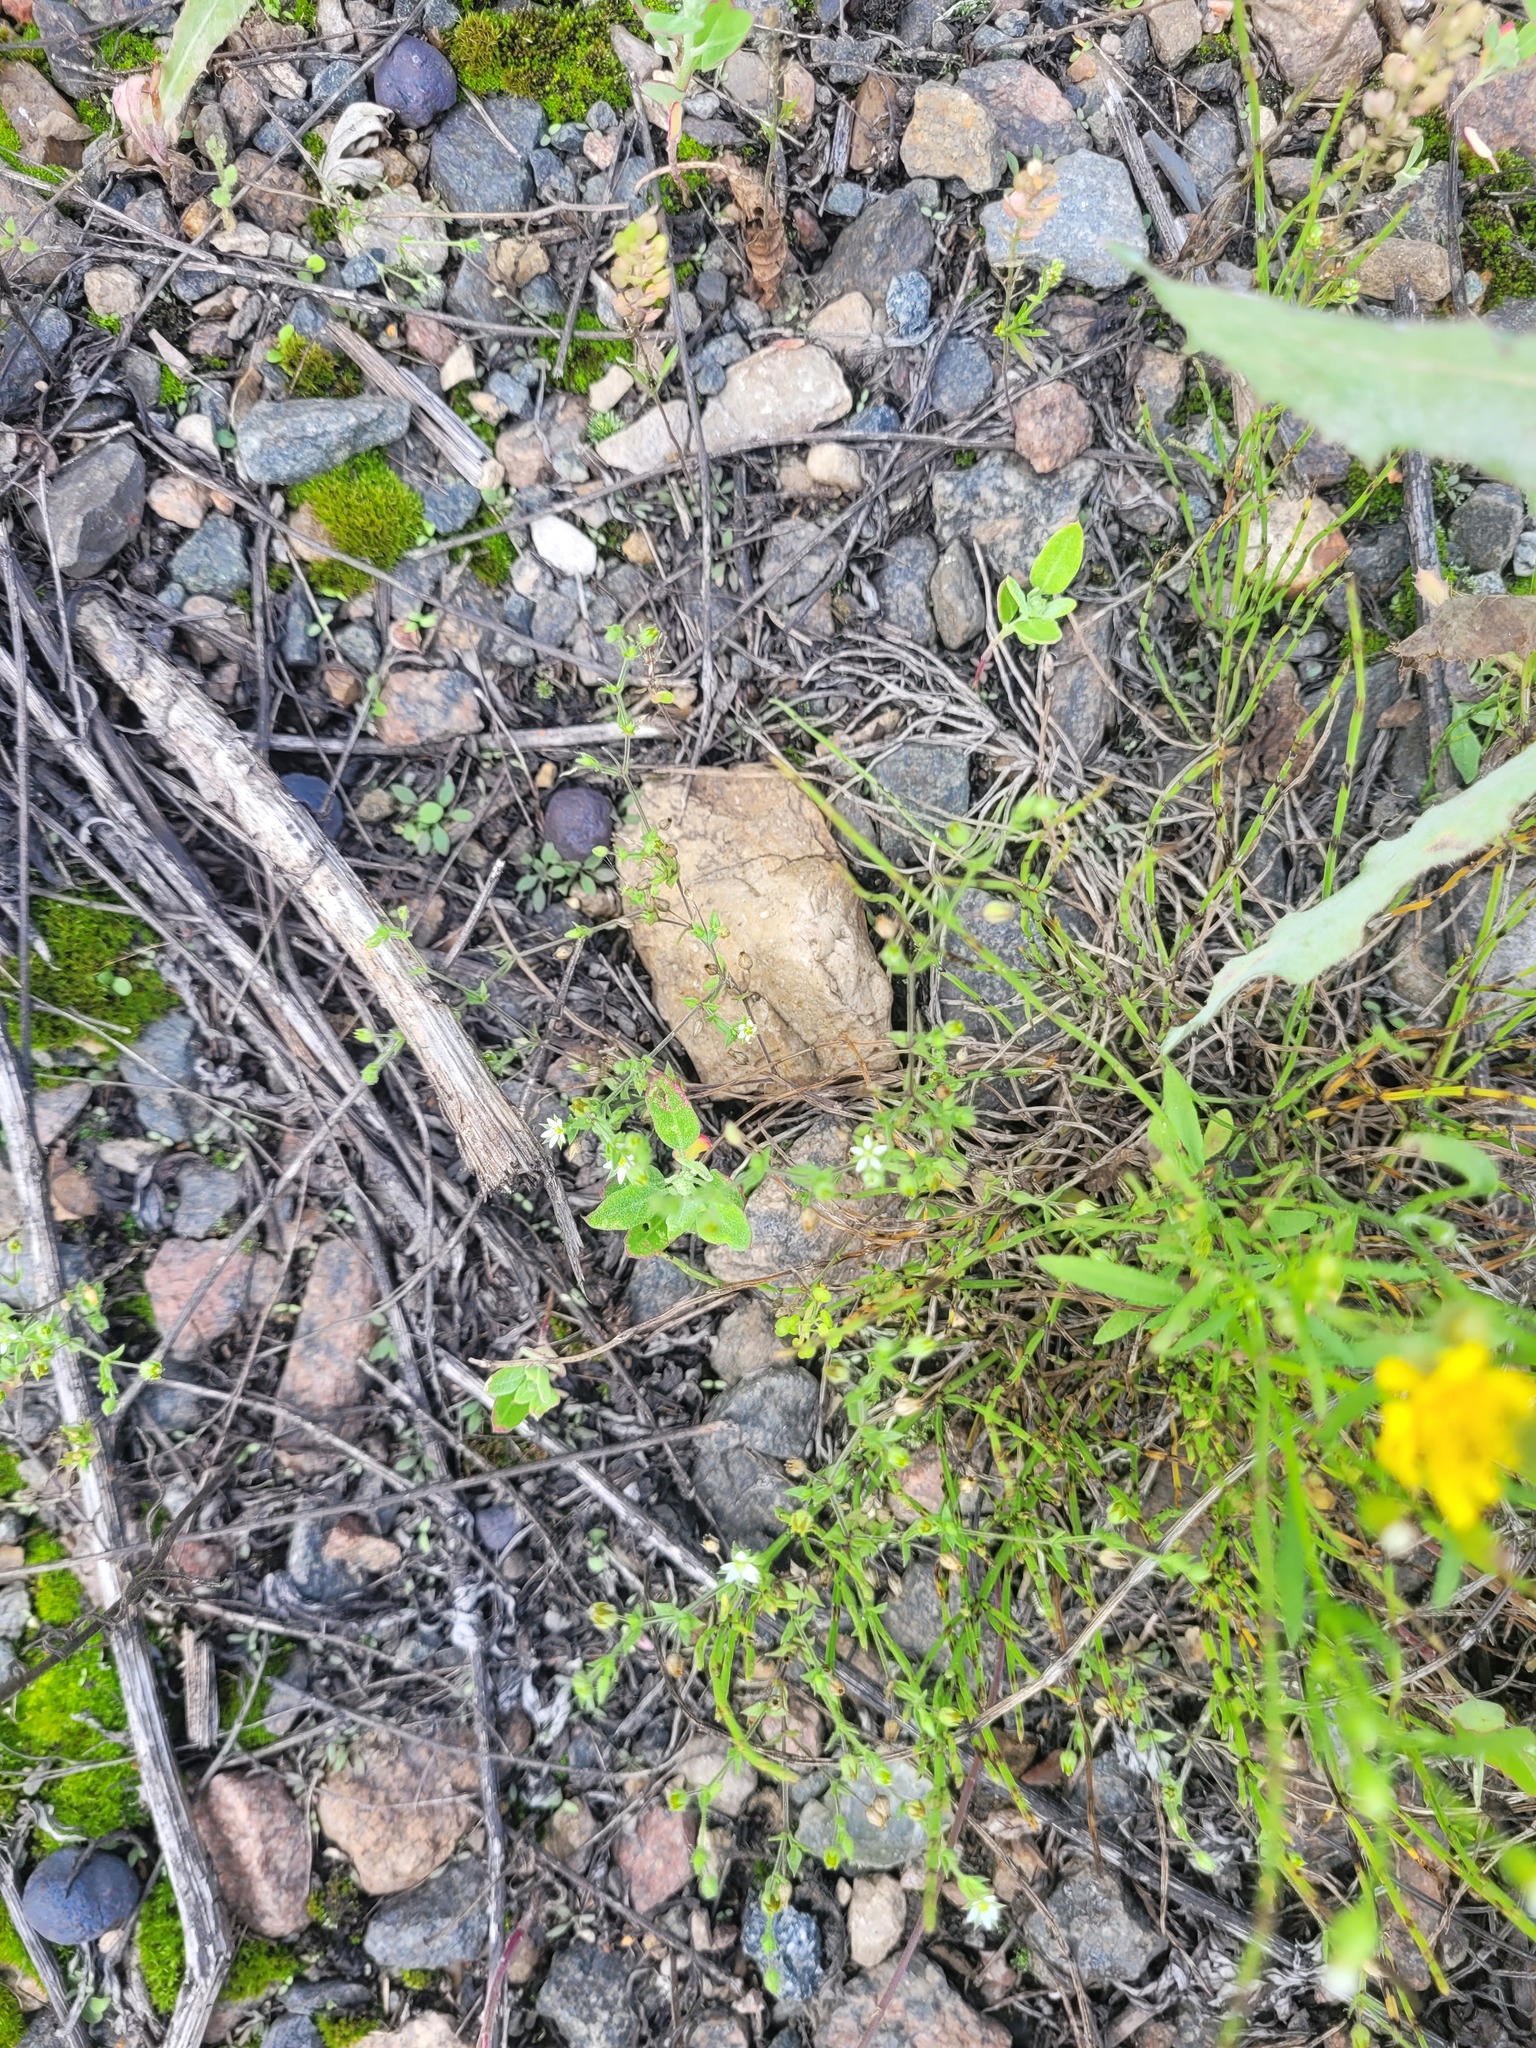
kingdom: Plantae
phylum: Tracheophyta
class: Magnoliopsida
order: Caryophyllales
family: Caryophyllaceae
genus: Arenaria
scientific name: Arenaria serpyllifolia
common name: Thyme-leaved sandwort
